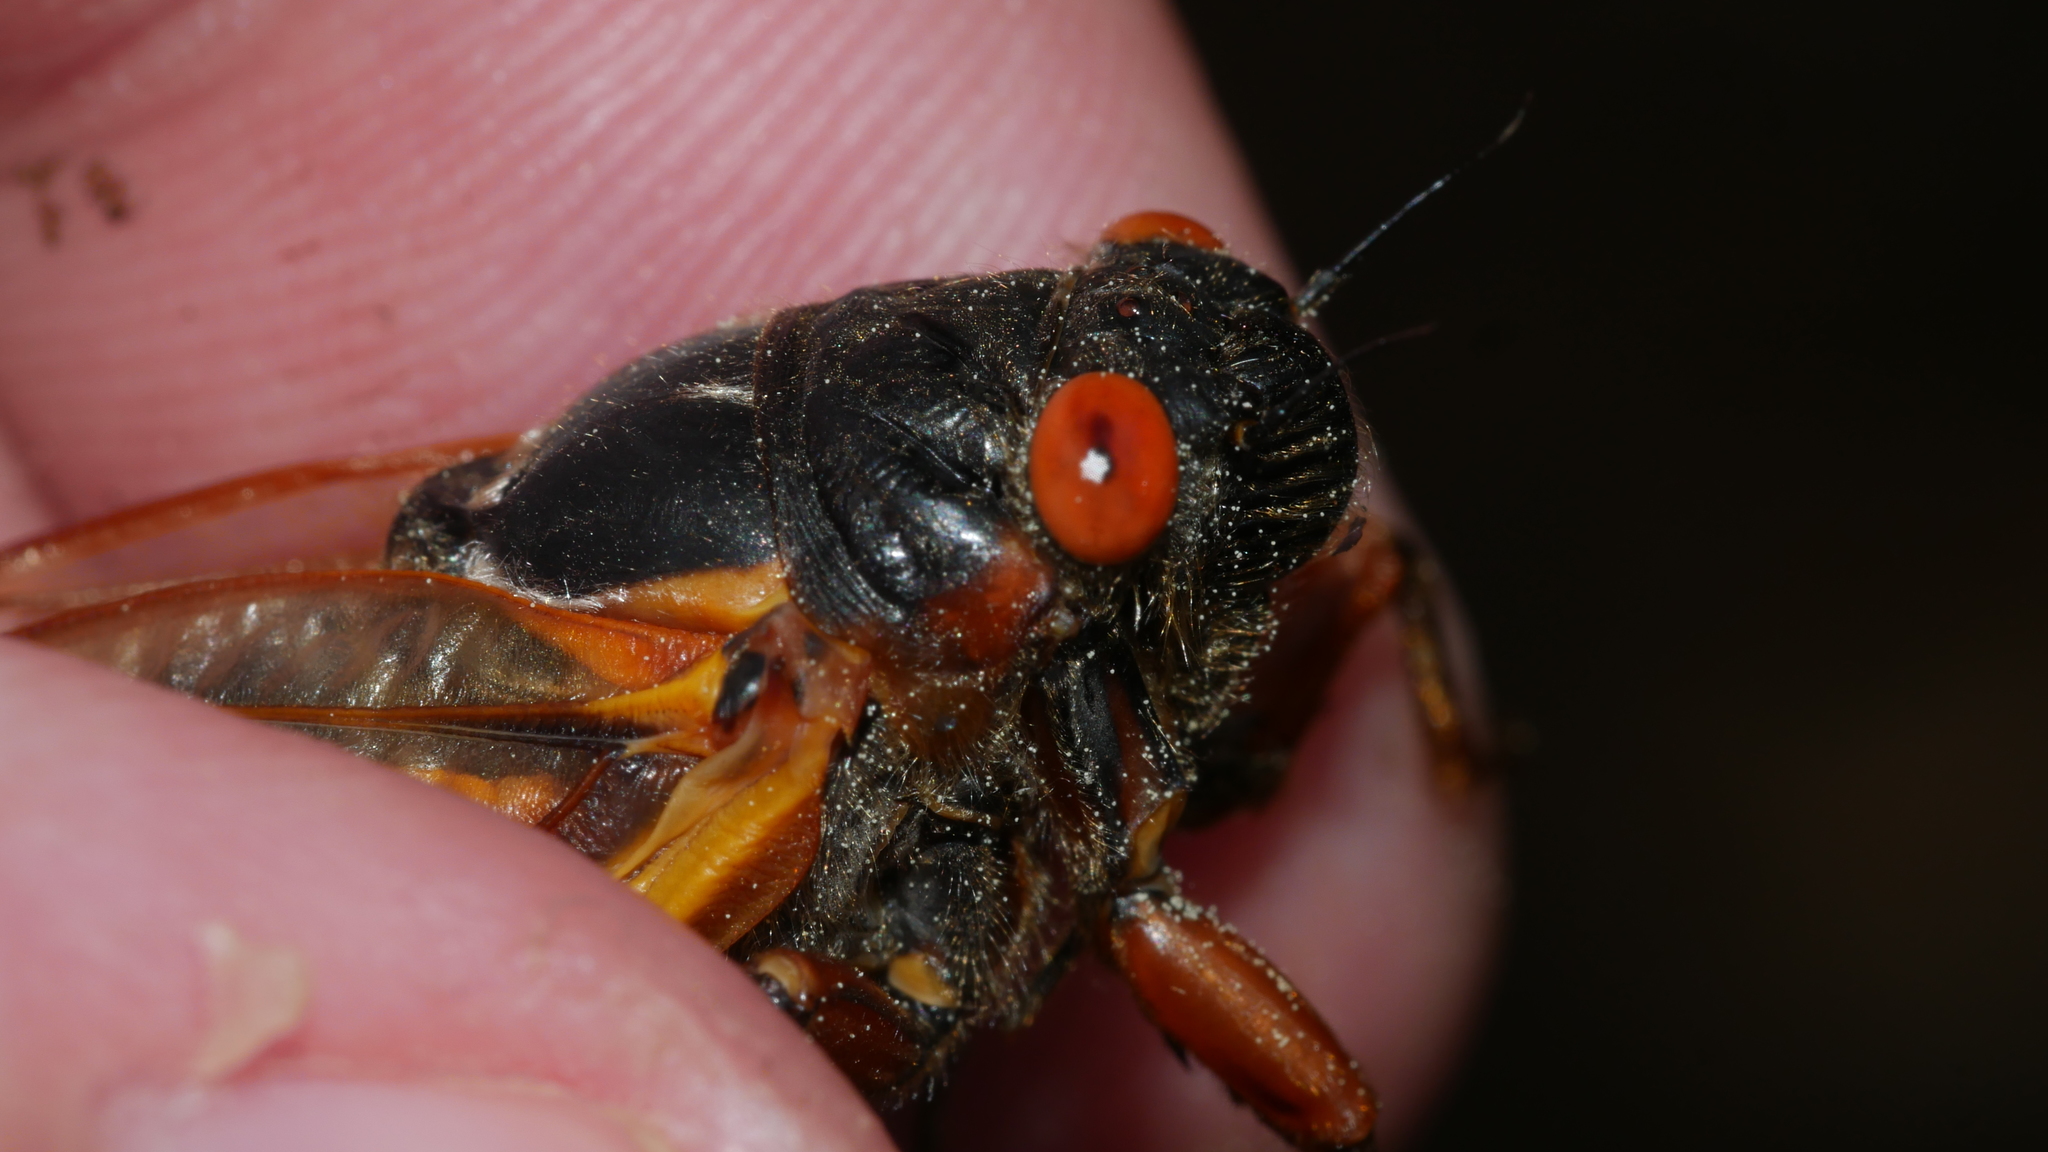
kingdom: Animalia
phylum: Arthropoda
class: Insecta
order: Hemiptera
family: Cicadidae
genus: Magicicada
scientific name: Magicicada septendecim
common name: Periodical cicada
